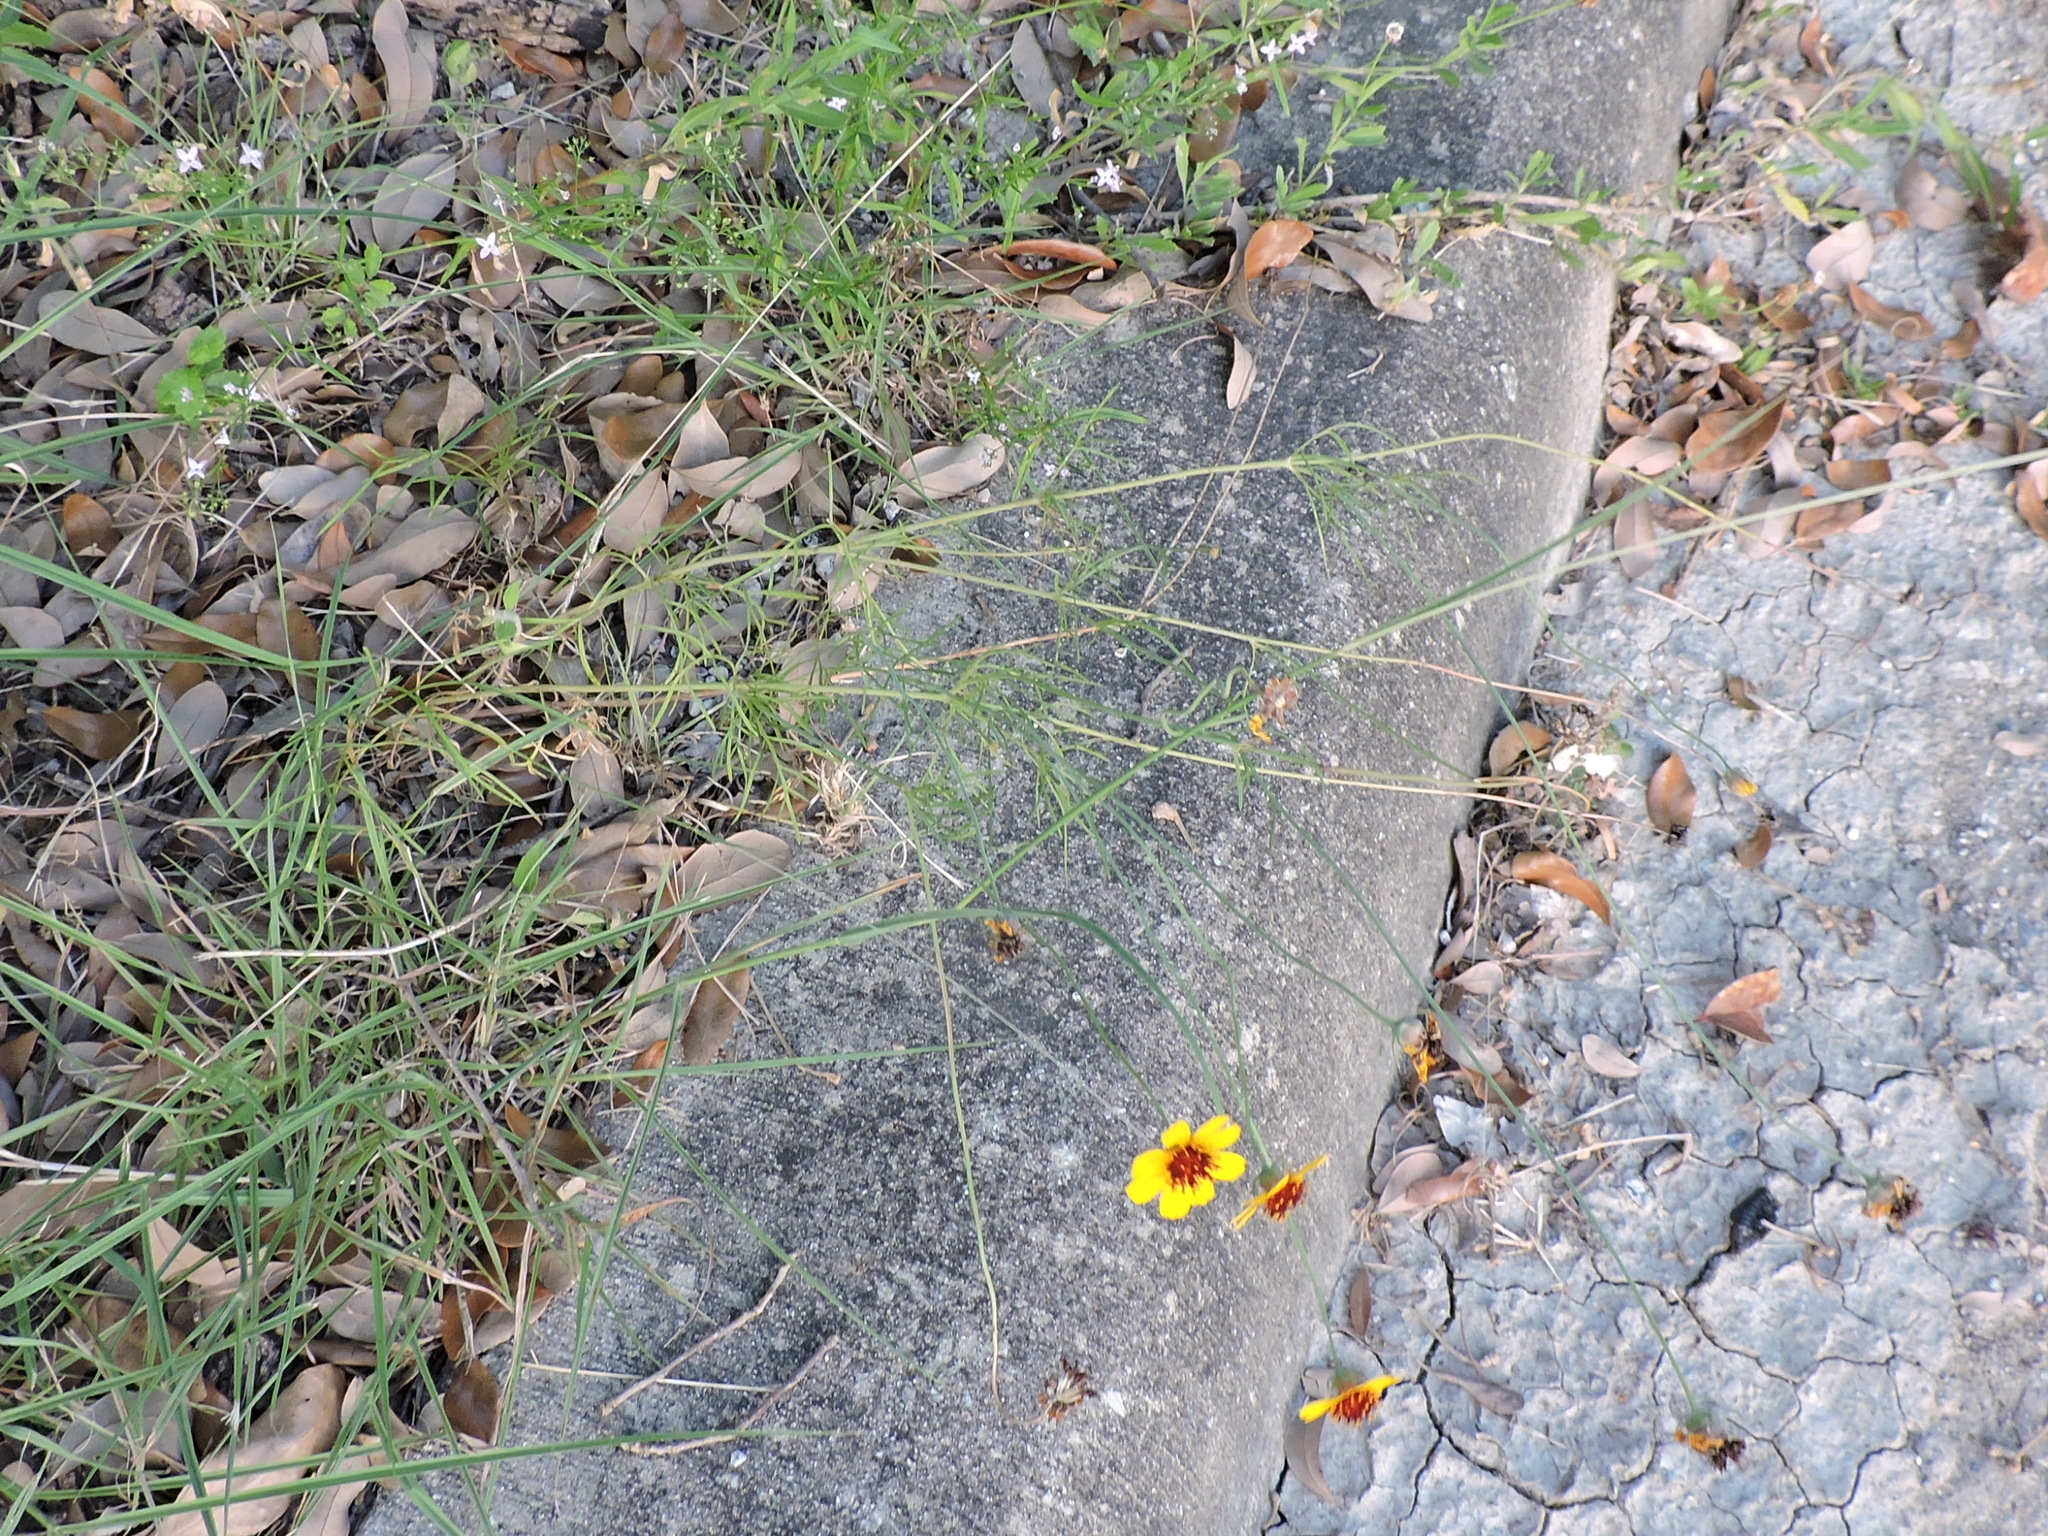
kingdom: Plantae
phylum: Tracheophyta
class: Magnoliopsida
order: Asterales
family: Asteraceae
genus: Thelesperma
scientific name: Thelesperma filifolium
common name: Stiff greenthread
